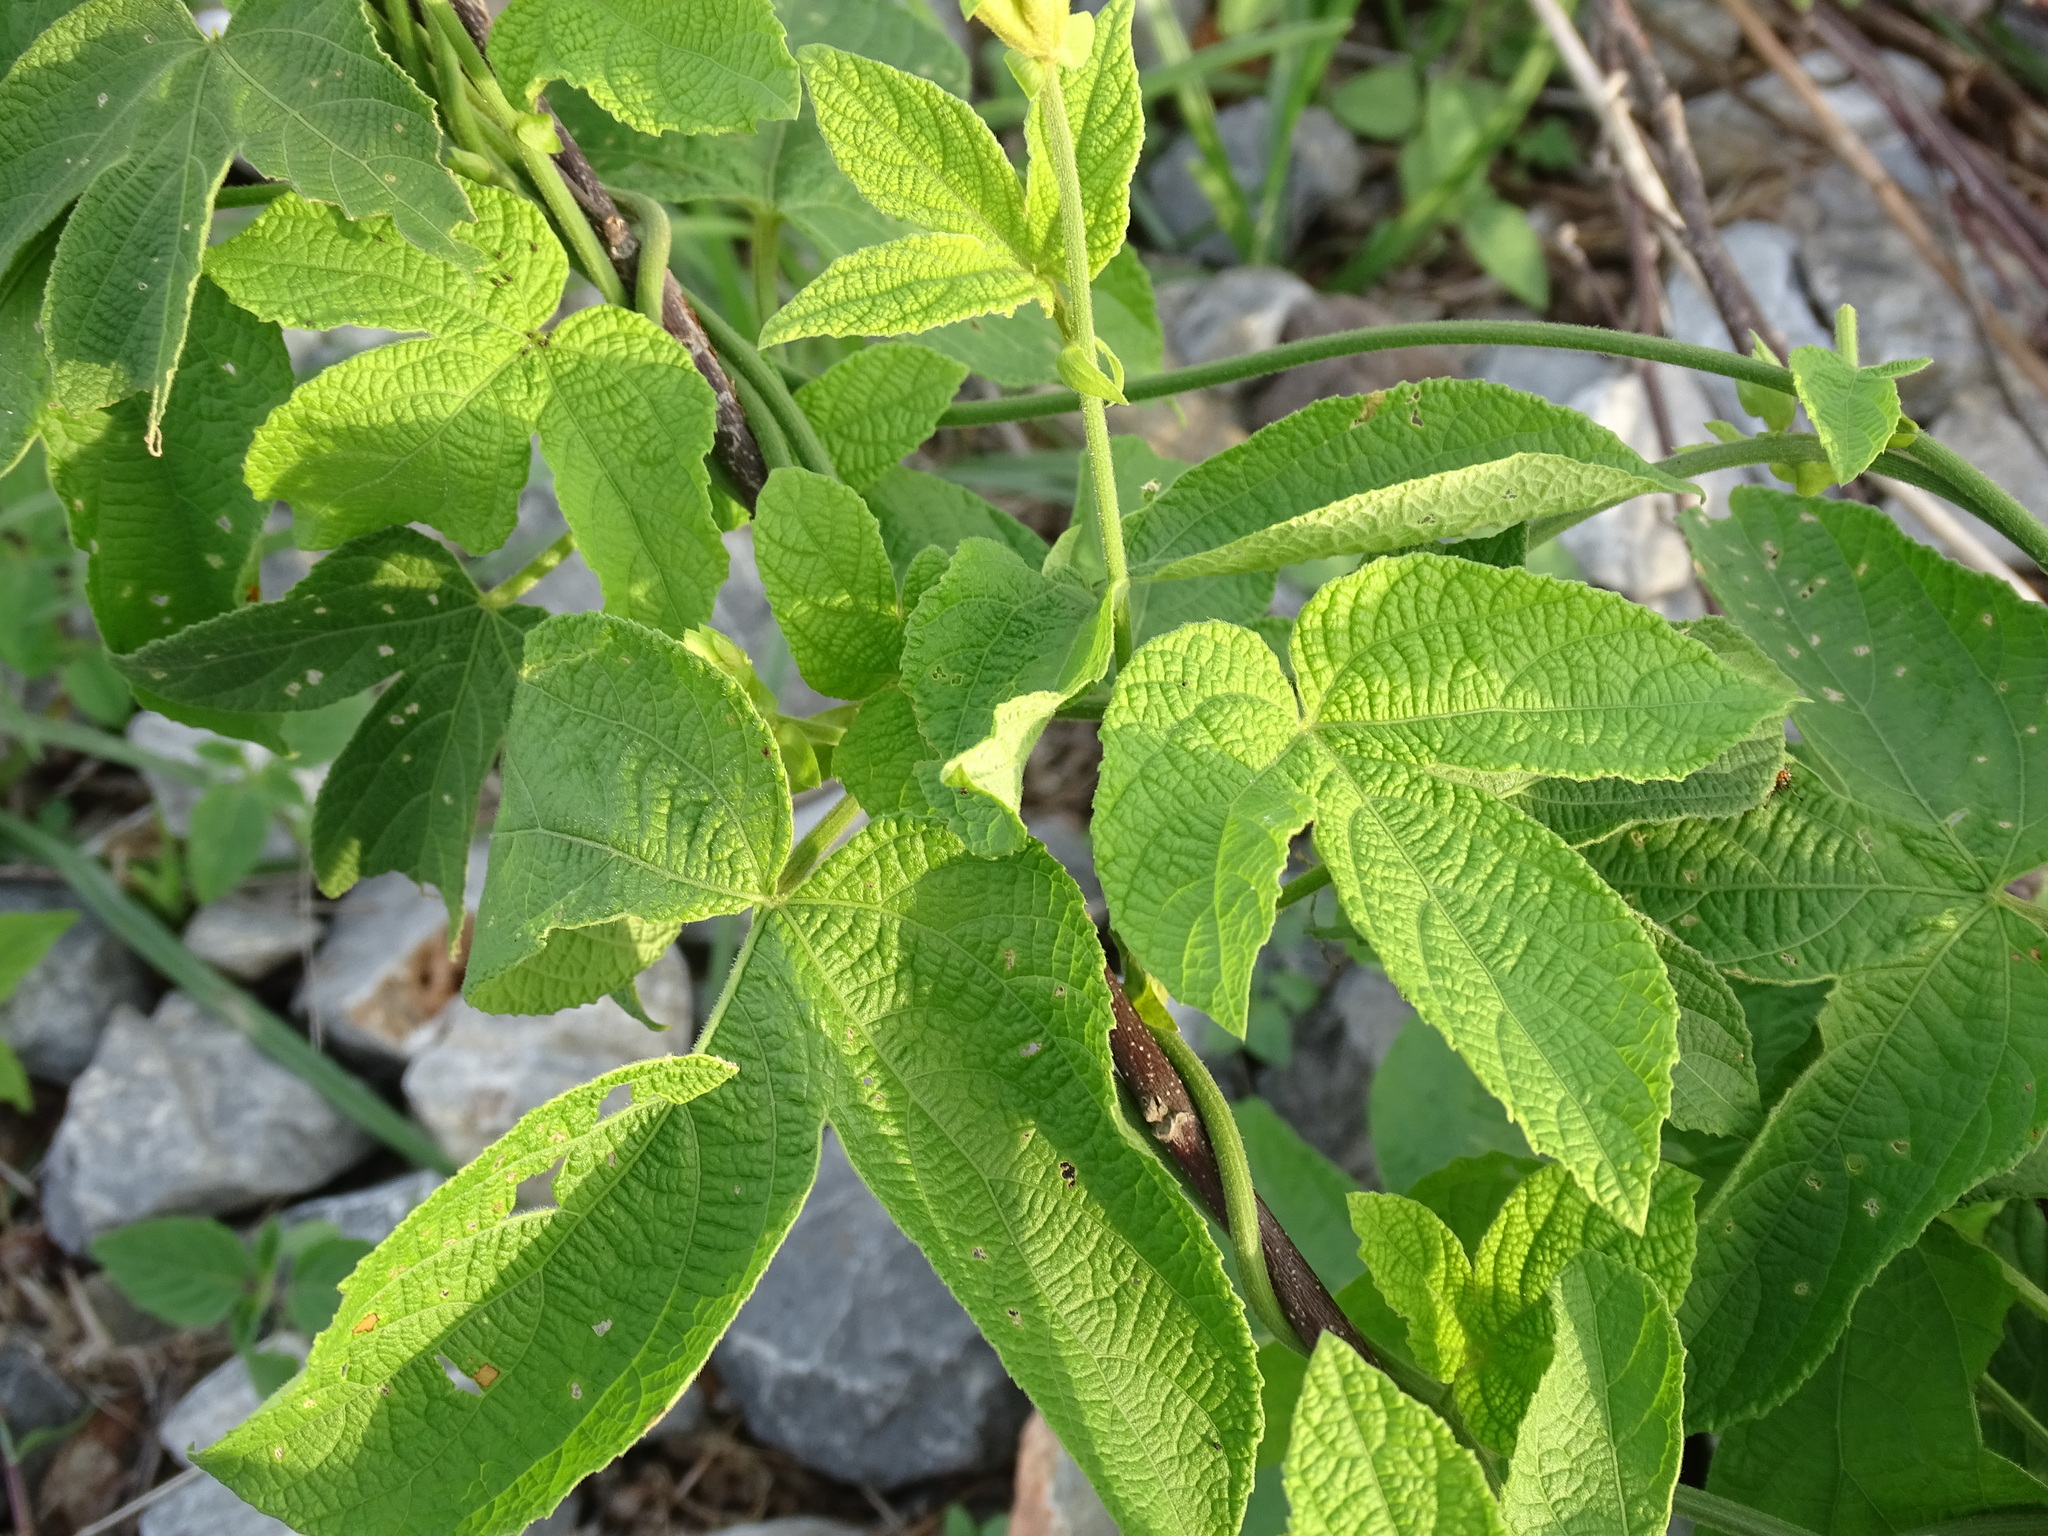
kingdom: Plantae
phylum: Tracheophyta
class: Magnoliopsida
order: Malpighiales
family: Euphorbiaceae
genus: Dalechampia
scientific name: Dalechampia scandens
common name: Spurgecreeper
